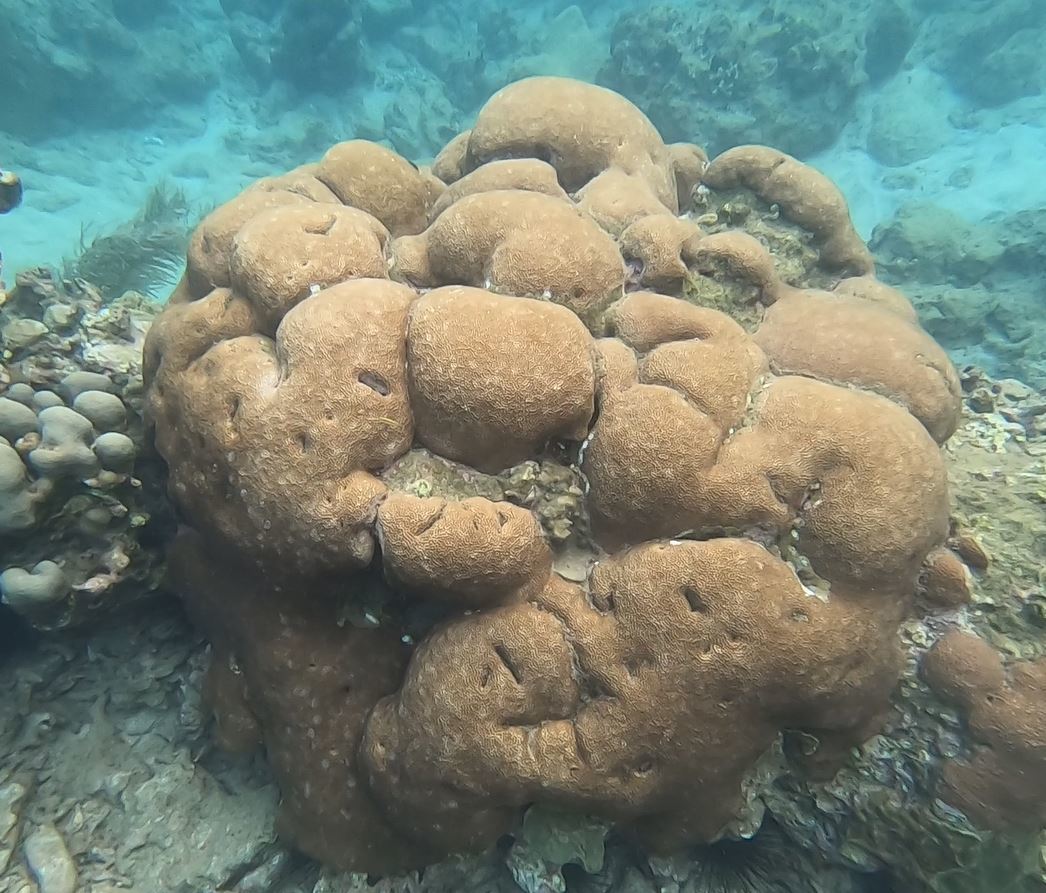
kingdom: Animalia
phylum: Cnidaria
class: Anthozoa
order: Scleractinia
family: Rhizangiidae
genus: Siderastrea
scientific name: Siderastrea siderea
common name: Massive starlet coral
